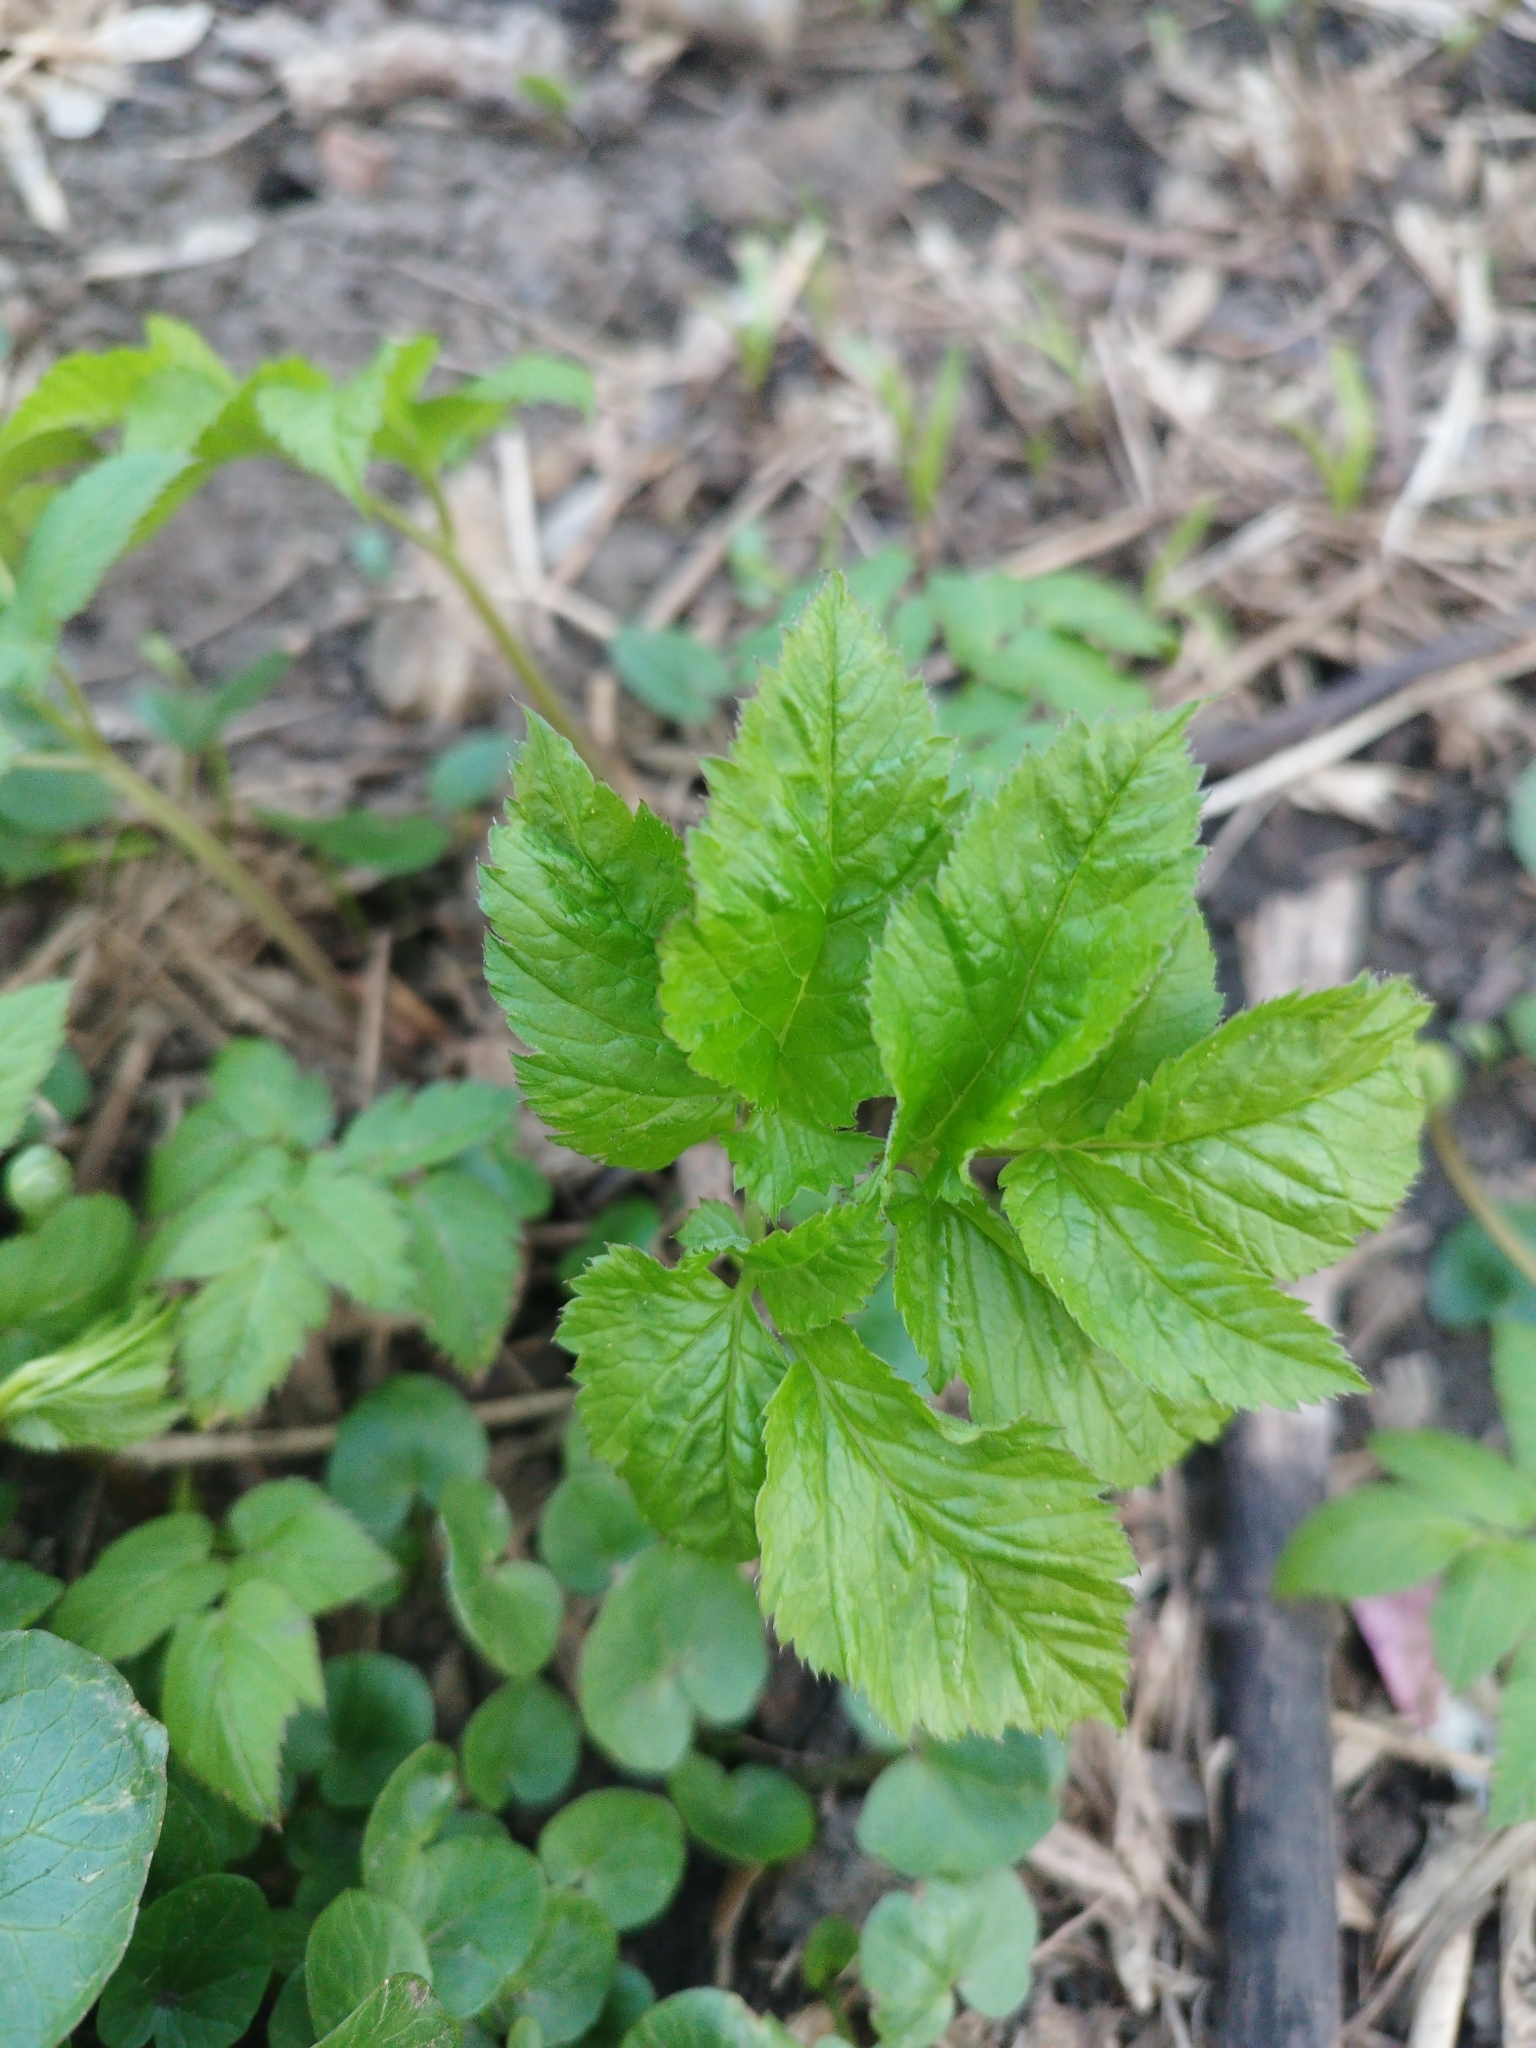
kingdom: Plantae
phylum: Tracheophyta
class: Magnoliopsida
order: Apiales
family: Apiaceae
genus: Aegopodium
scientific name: Aegopodium podagraria
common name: Ground-elder
